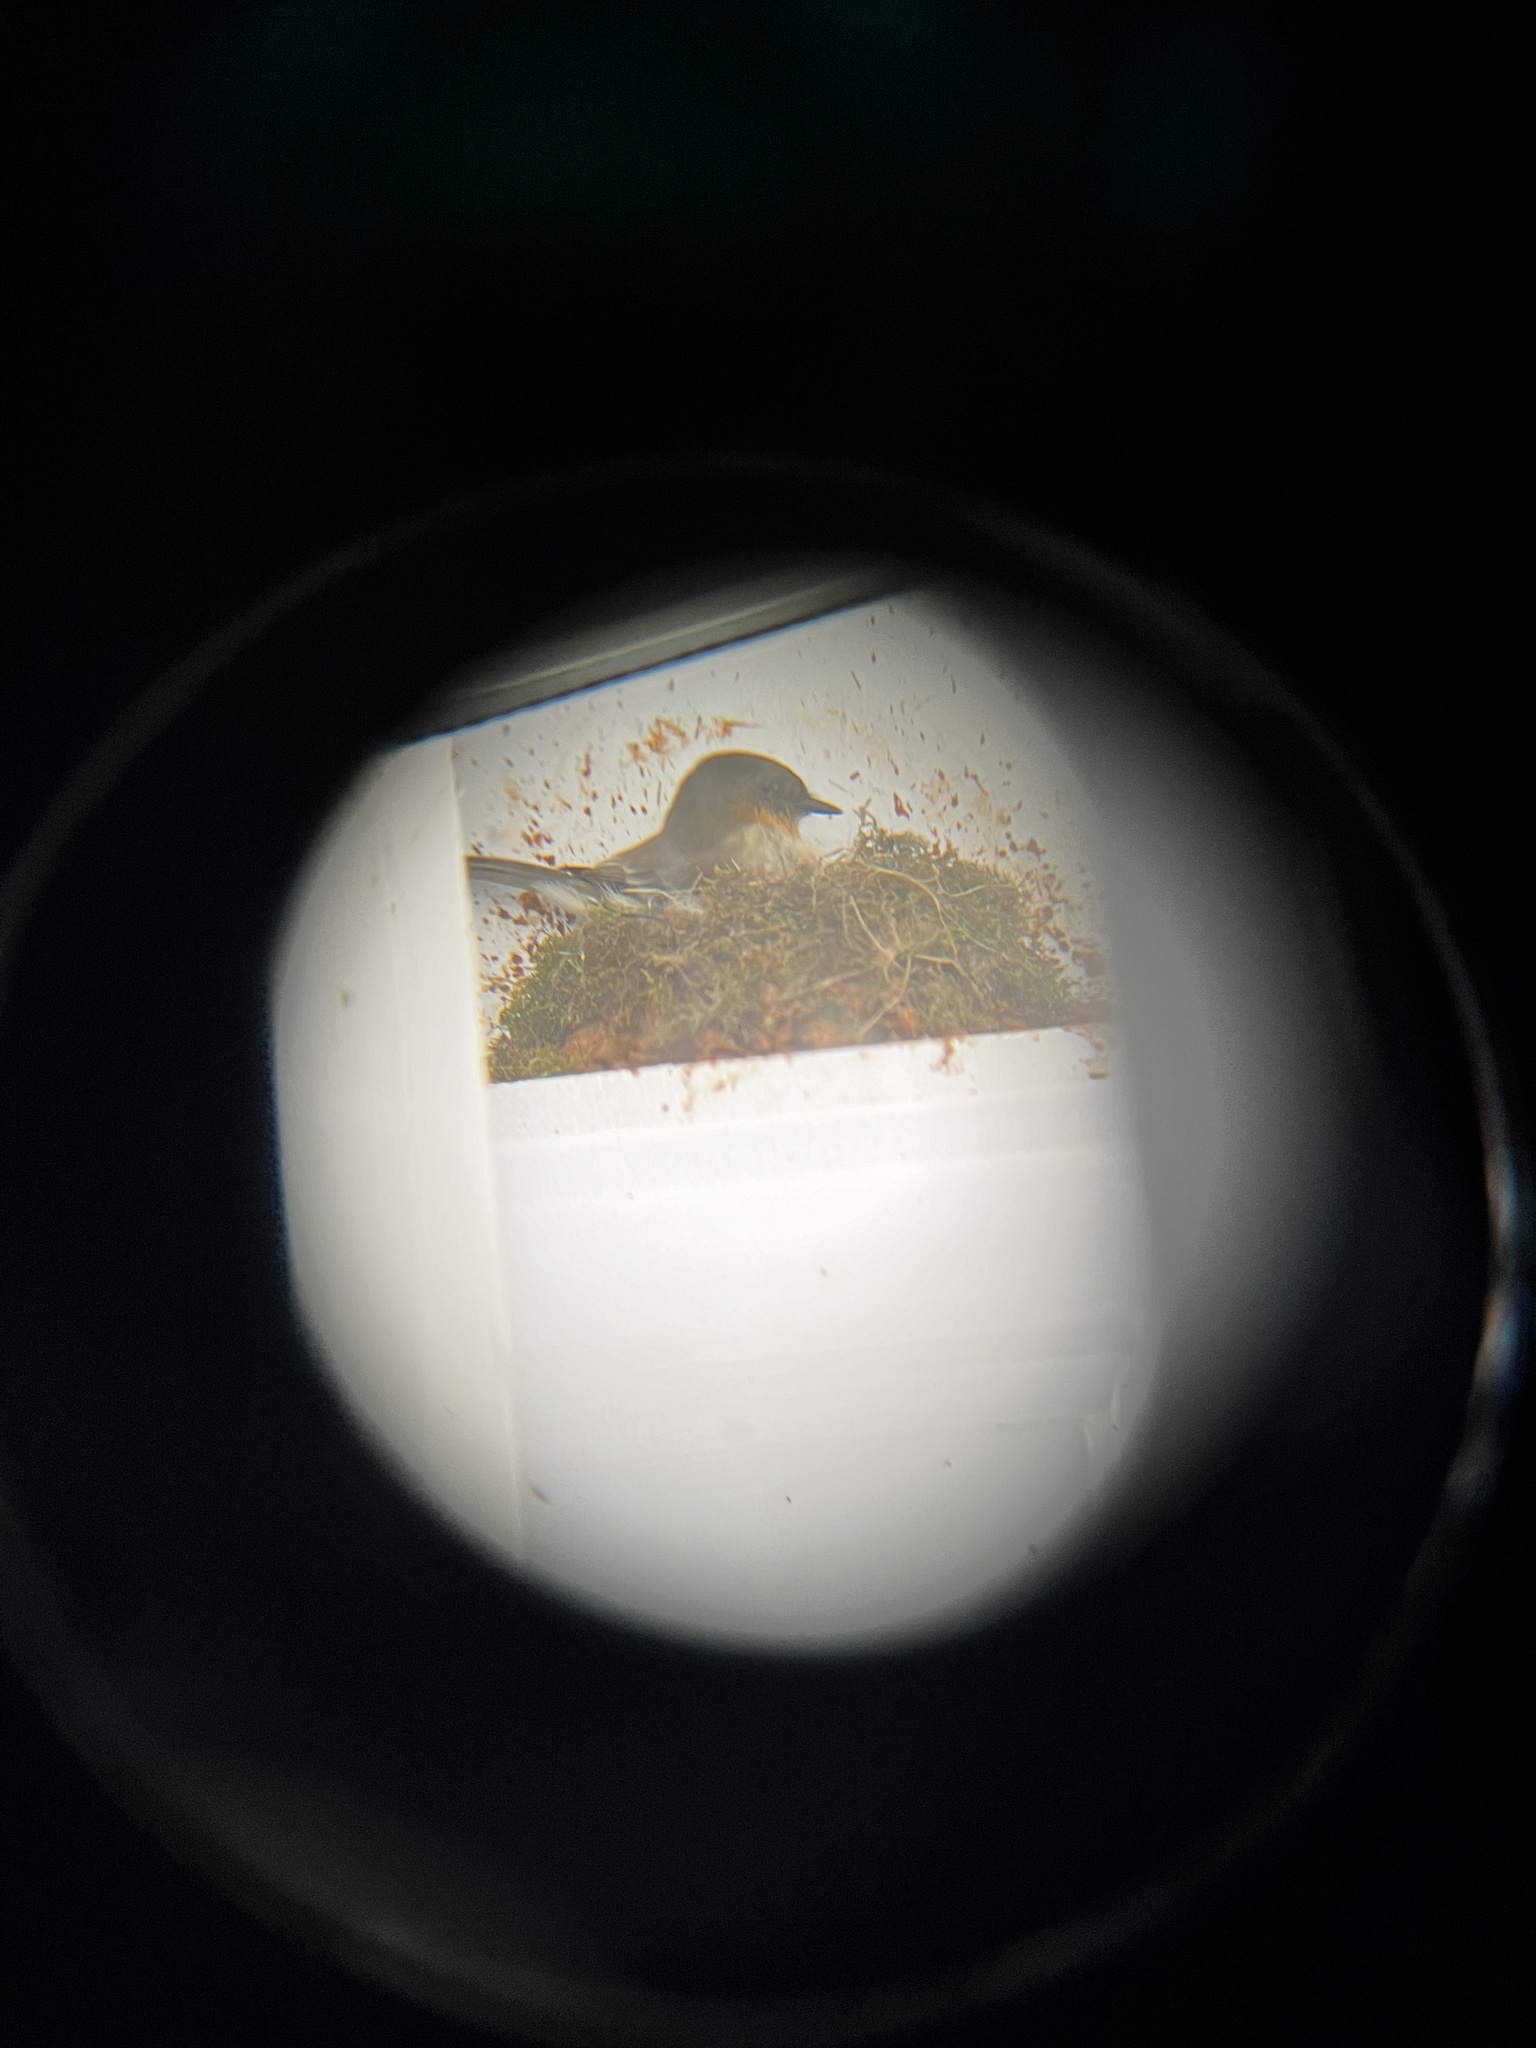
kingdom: Animalia
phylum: Chordata
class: Aves
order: Passeriformes
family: Tyrannidae
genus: Sayornis
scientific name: Sayornis phoebe
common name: Eastern phoebe
